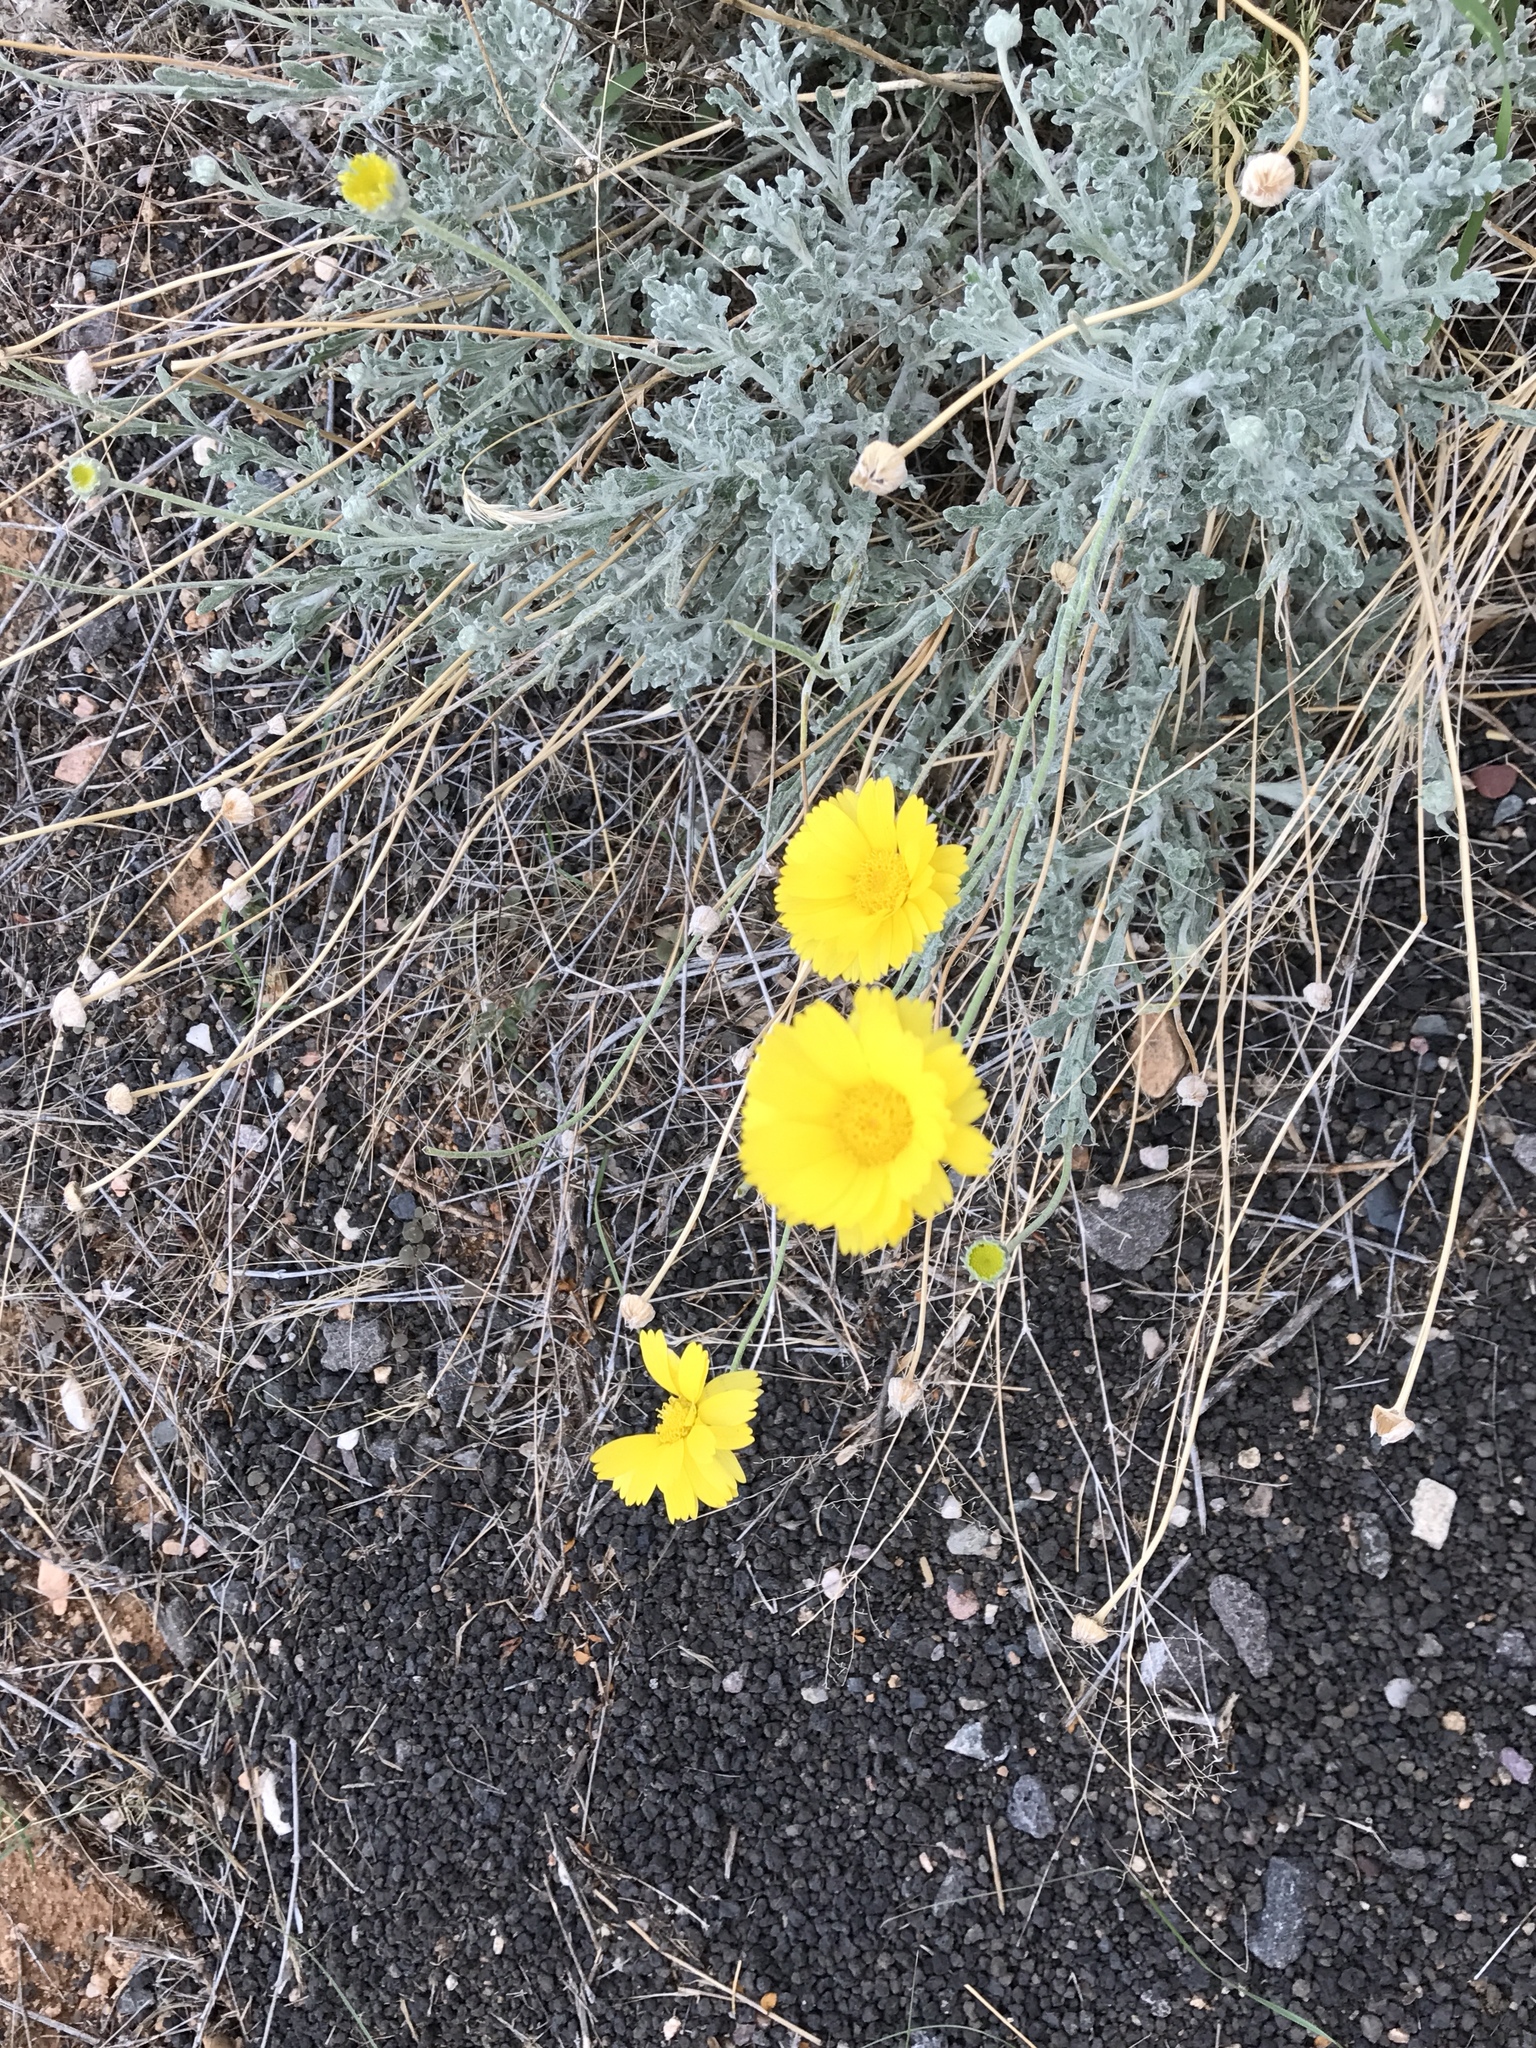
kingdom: Plantae
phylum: Tracheophyta
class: Magnoliopsida
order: Asterales
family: Asteraceae
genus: Baileya
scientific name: Baileya multiradiata
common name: Desert-marigold
